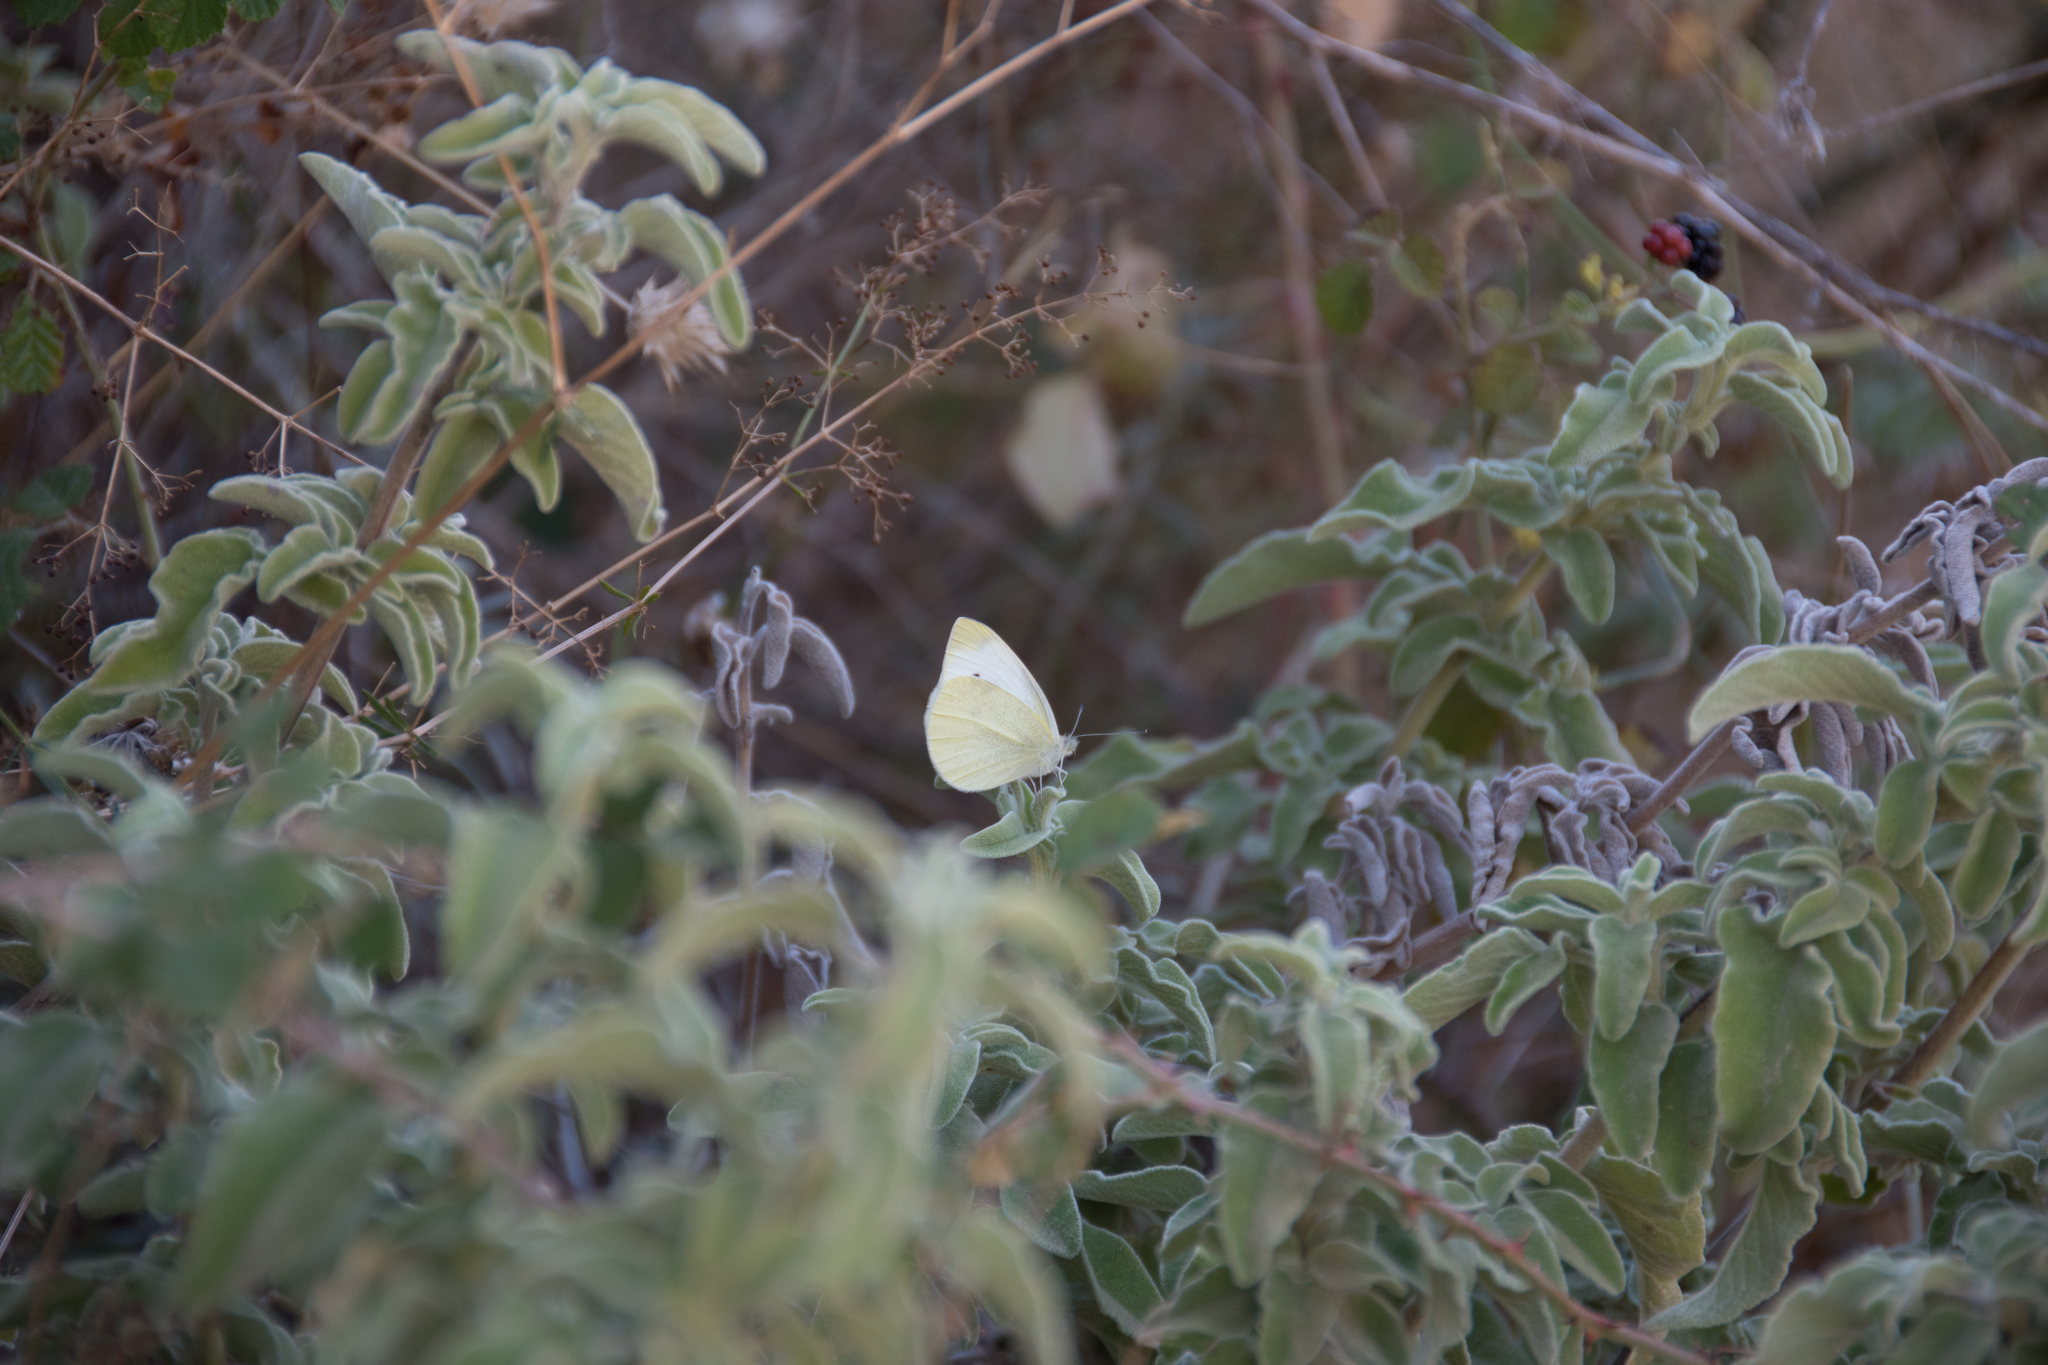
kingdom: Animalia
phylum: Arthropoda
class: Insecta
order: Lepidoptera
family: Pieridae
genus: Pieris
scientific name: Pieris rapae
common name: Small white
